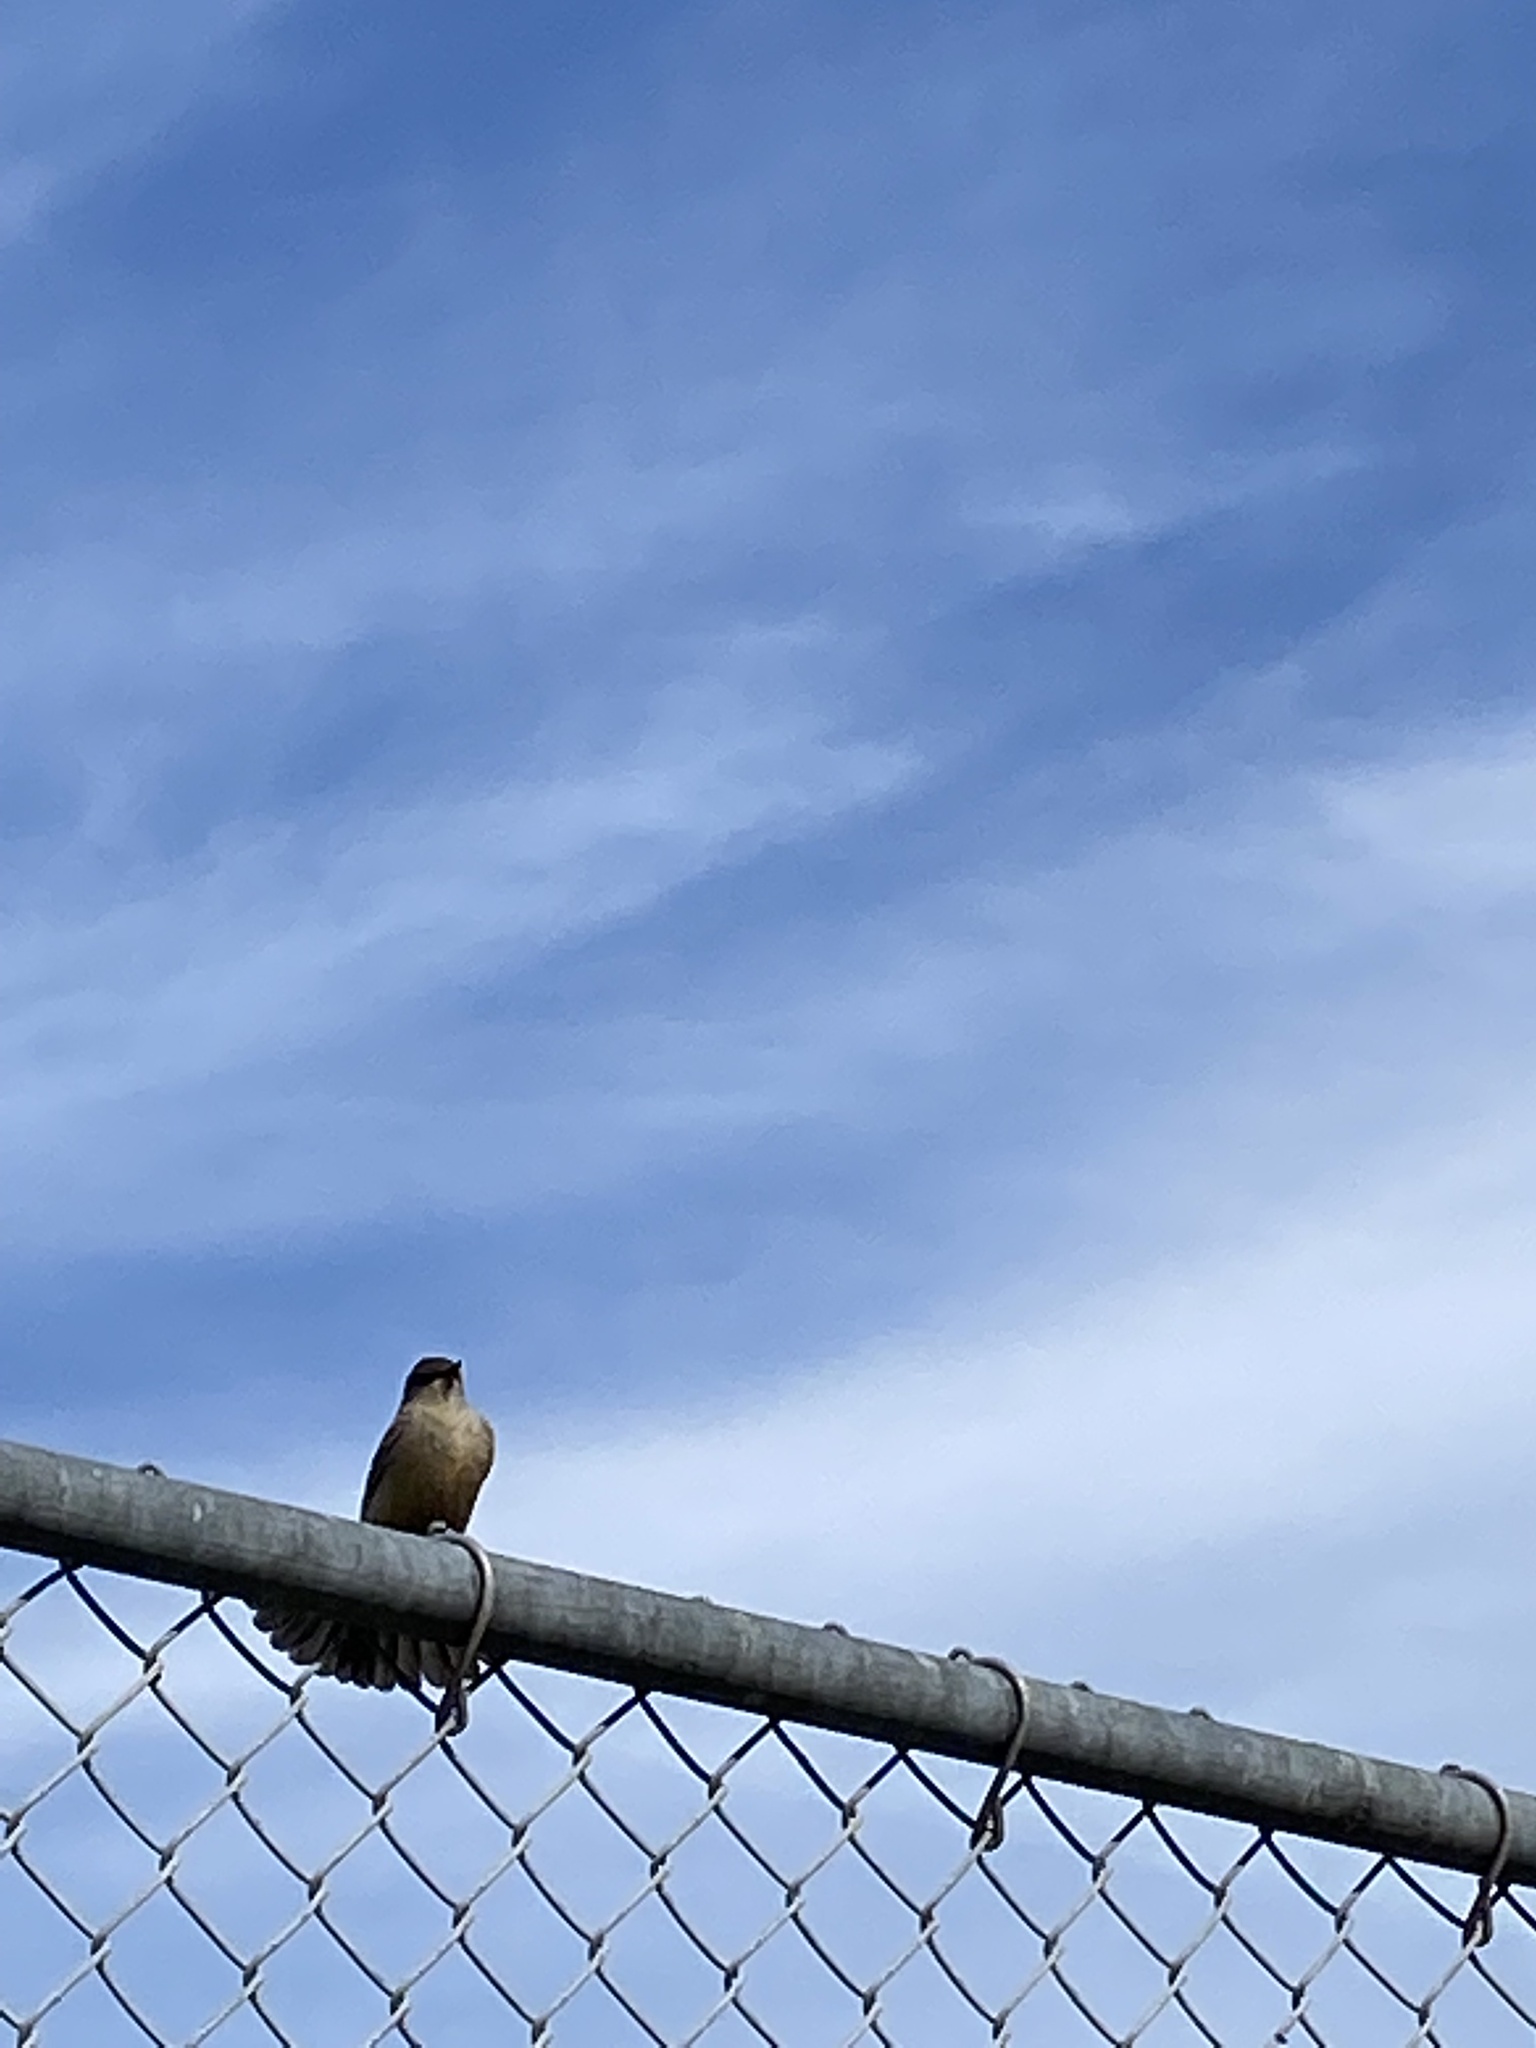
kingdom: Animalia
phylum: Chordata
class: Aves
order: Passeriformes
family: Tyrannidae
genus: Sayornis
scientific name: Sayornis saya
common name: Say's phoebe
